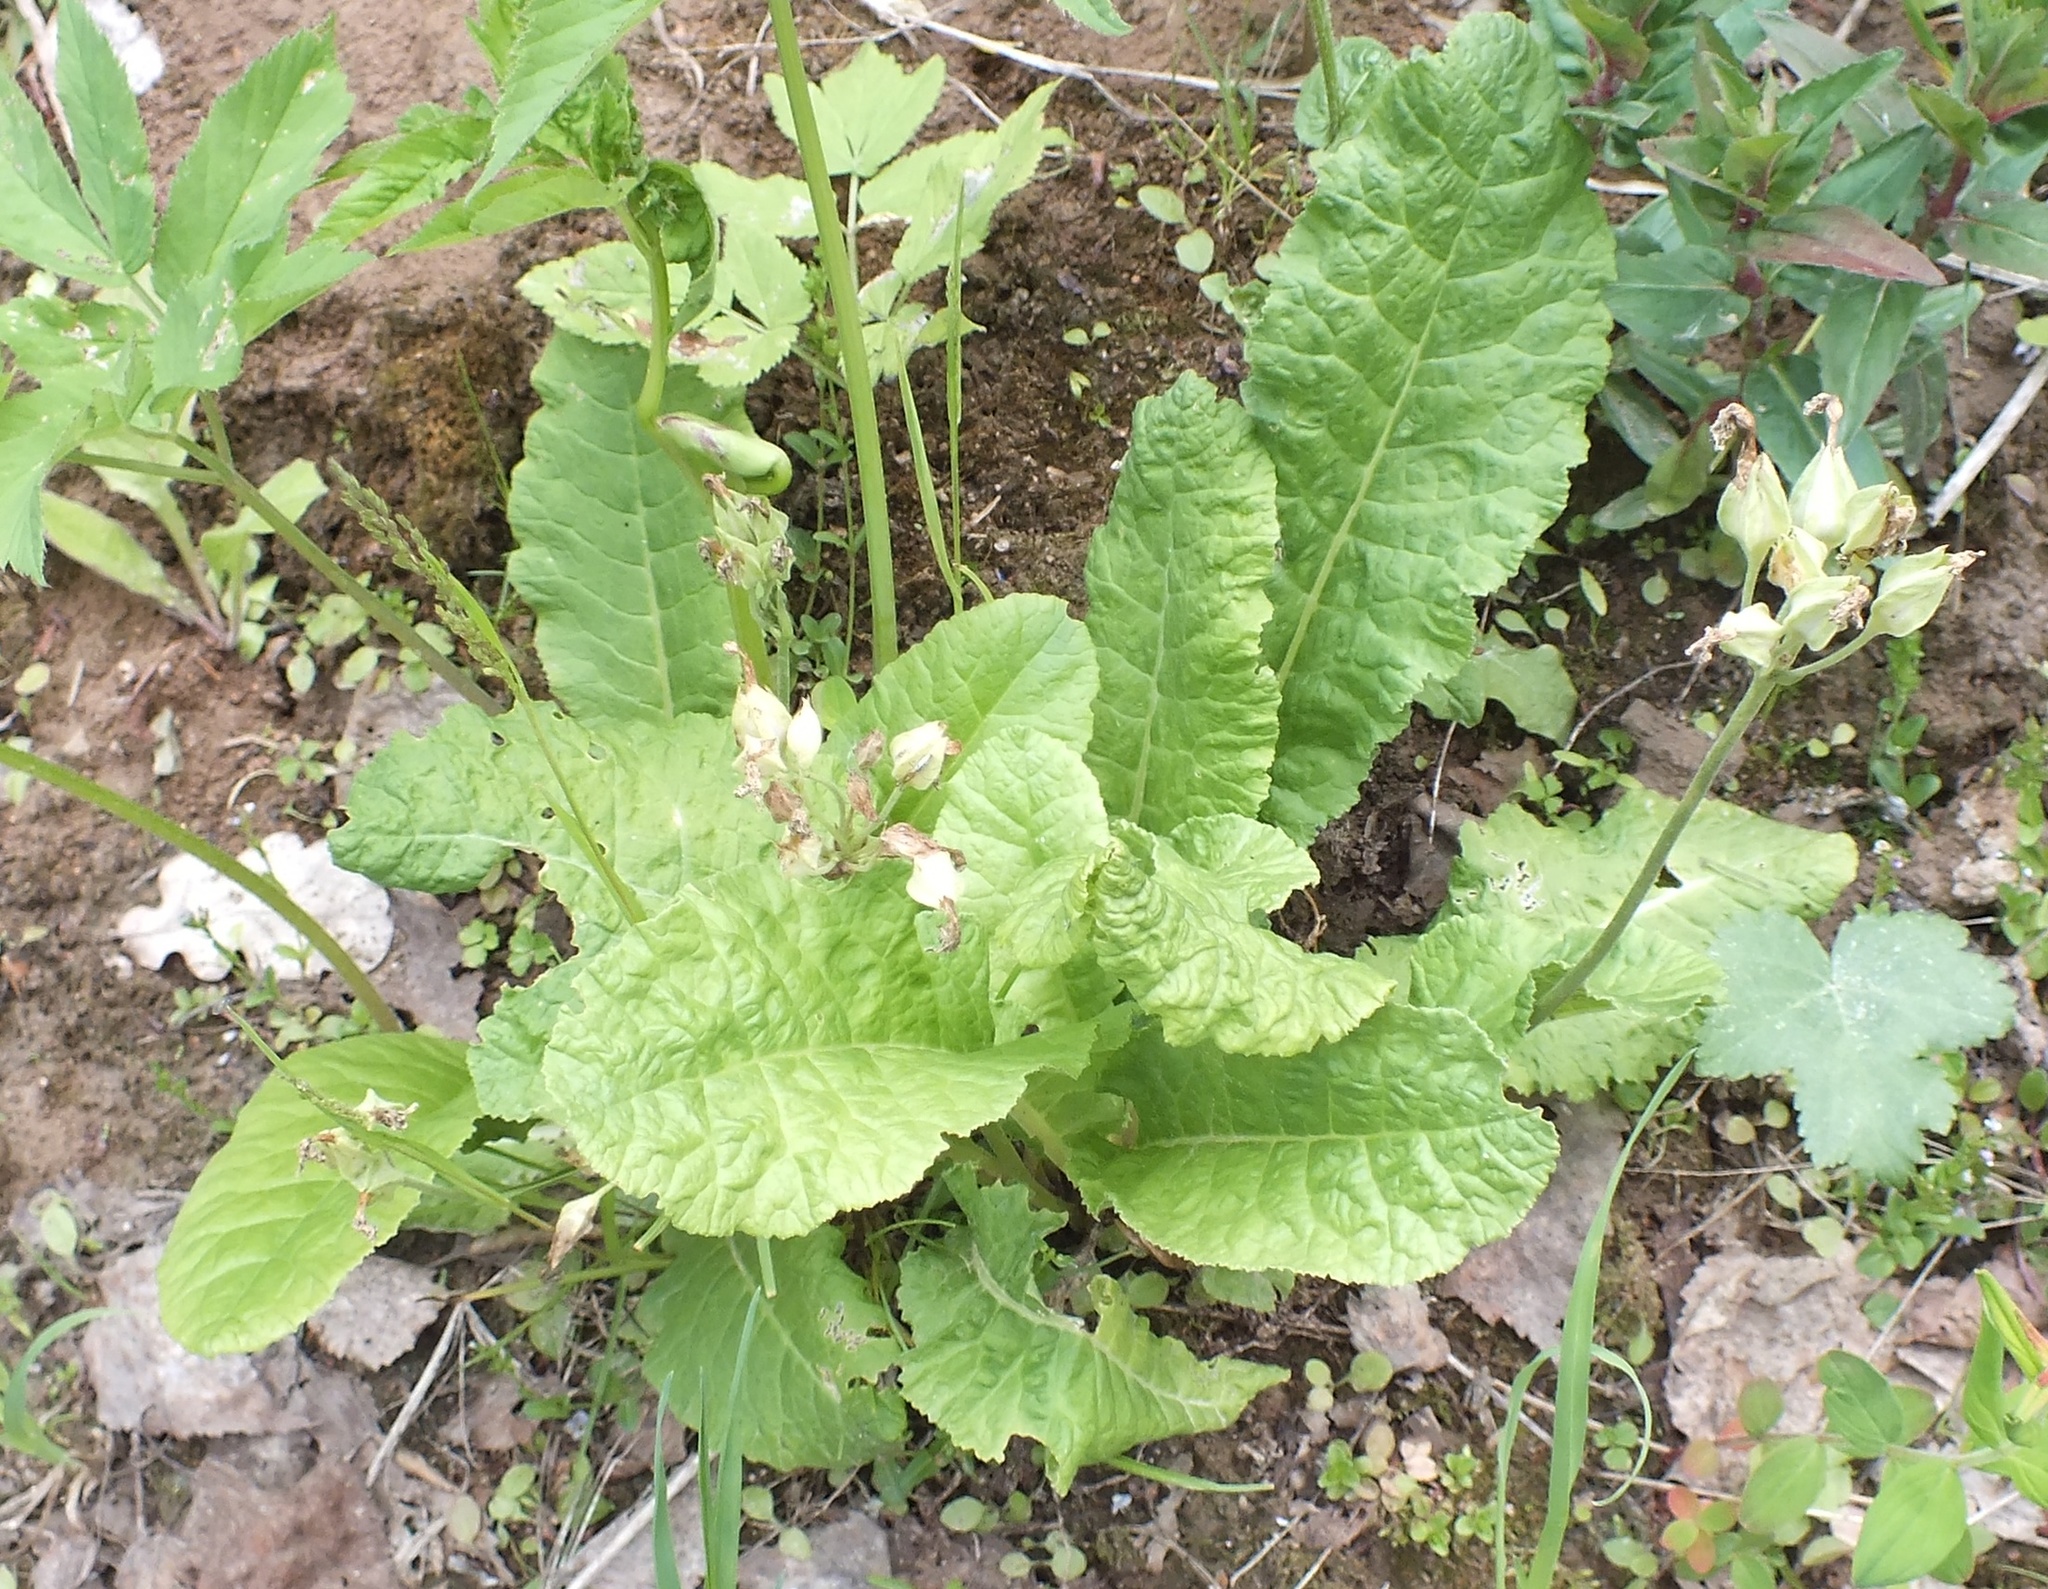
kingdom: Plantae
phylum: Tracheophyta
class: Magnoliopsida
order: Ericales
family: Primulaceae
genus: Primula
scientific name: Primula veris
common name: Cowslip
